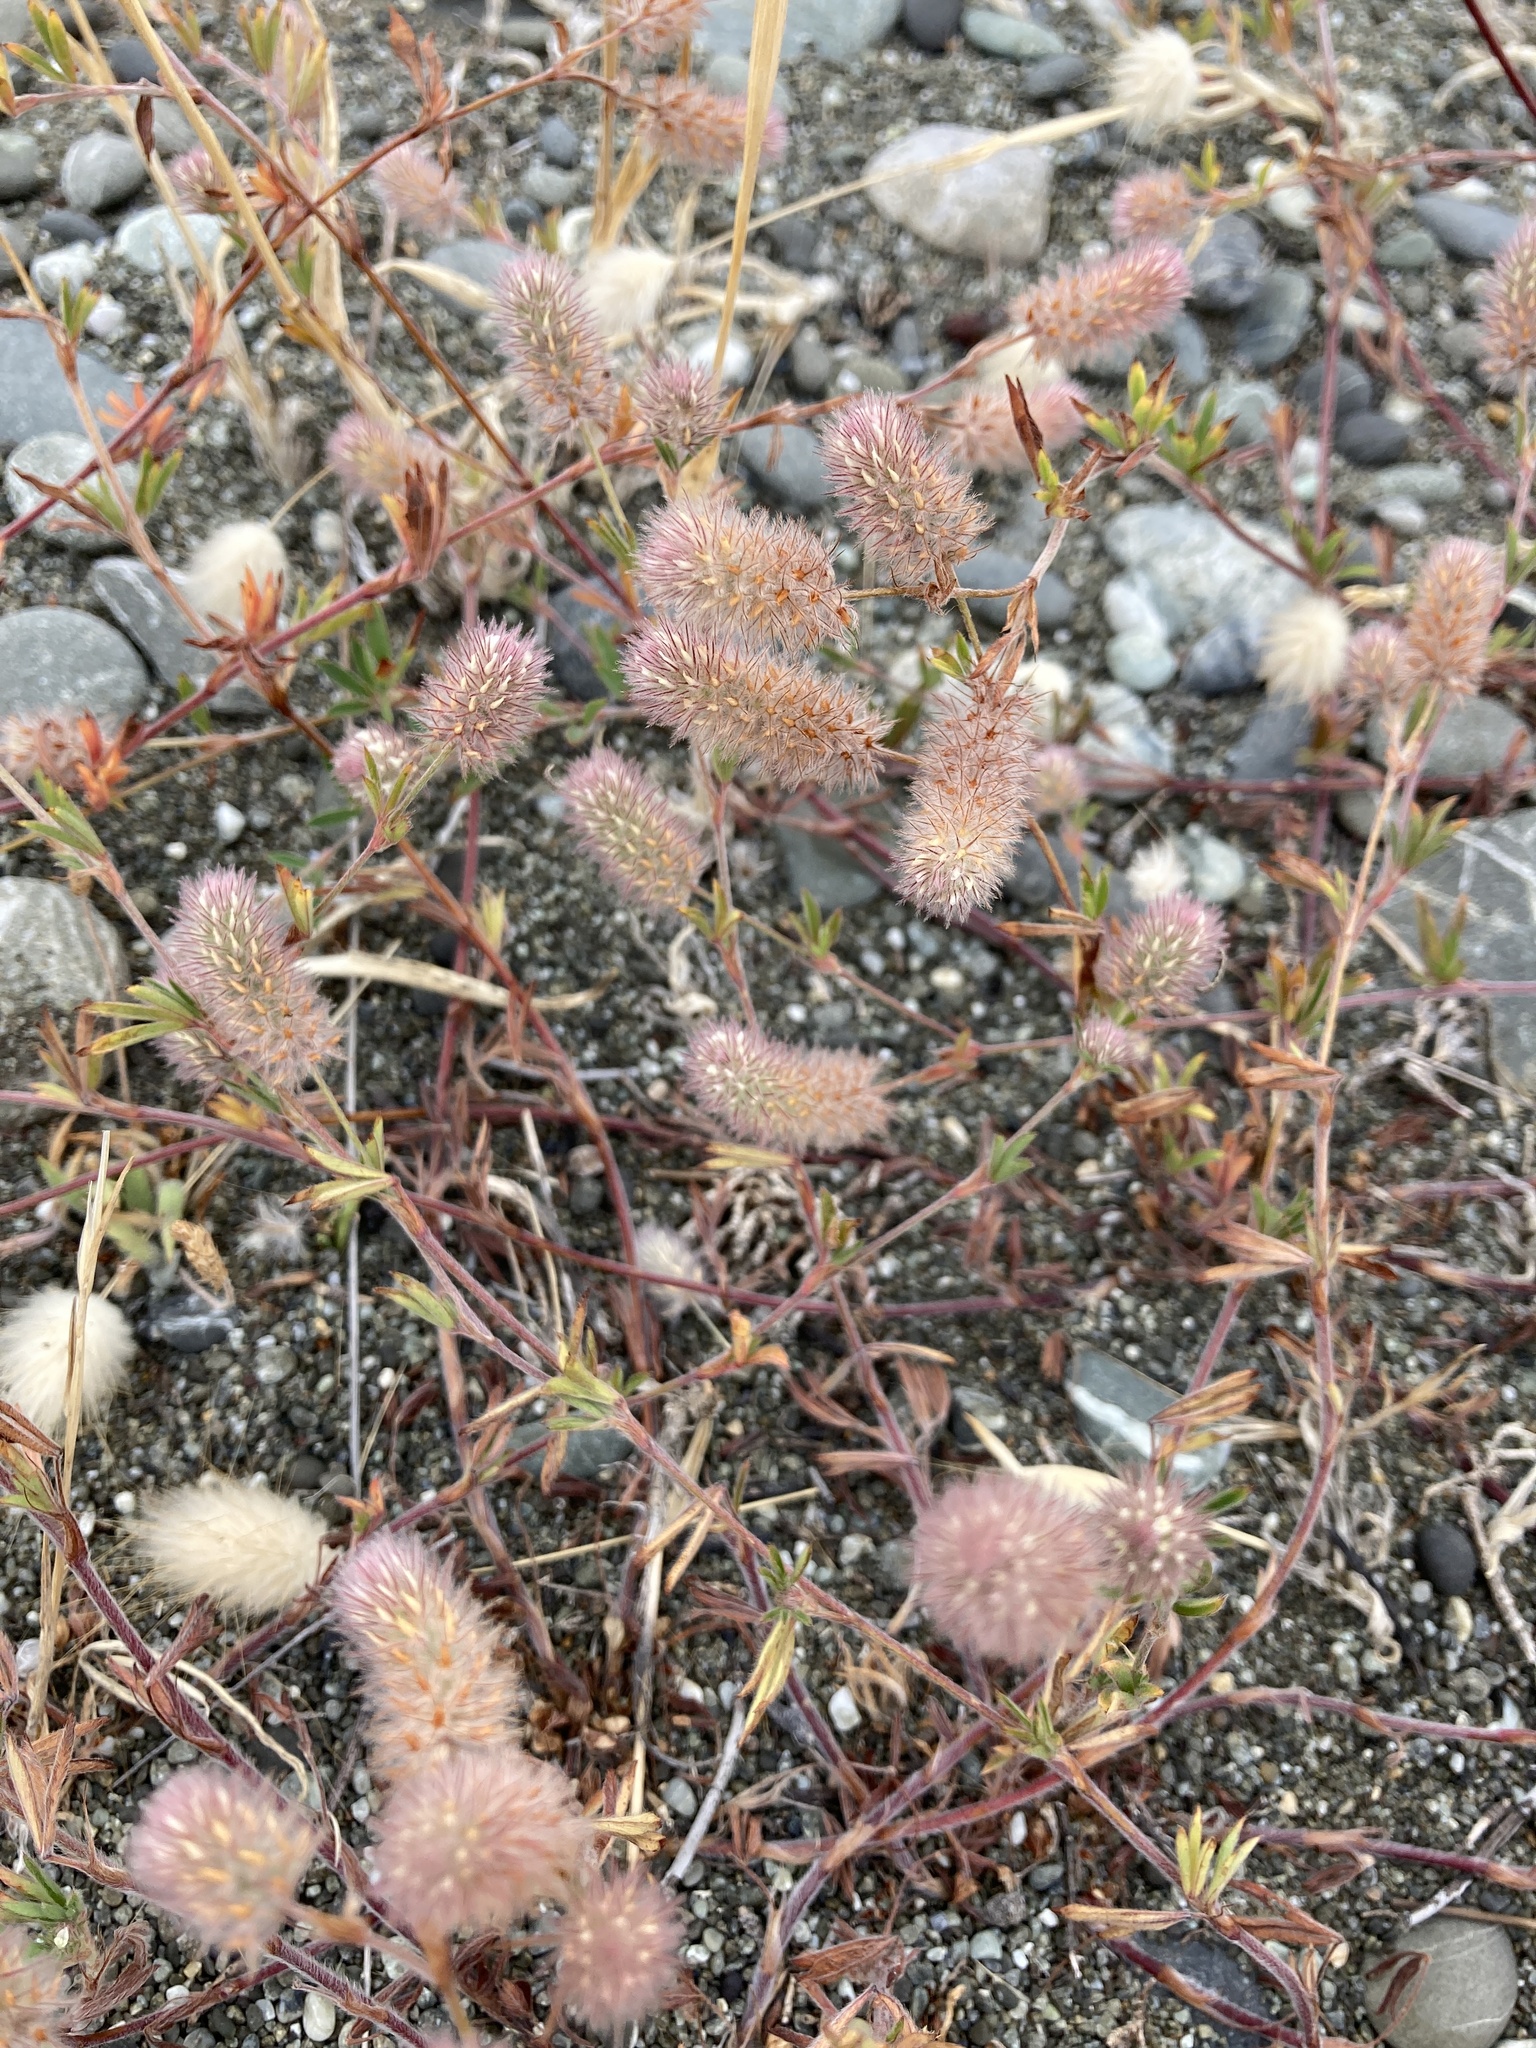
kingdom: Plantae
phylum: Tracheophyta
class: Magnoliopsida
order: Fabales
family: Fabaceae
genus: Trifolium
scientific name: Trifolium arvense
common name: Hare's-foot clover
